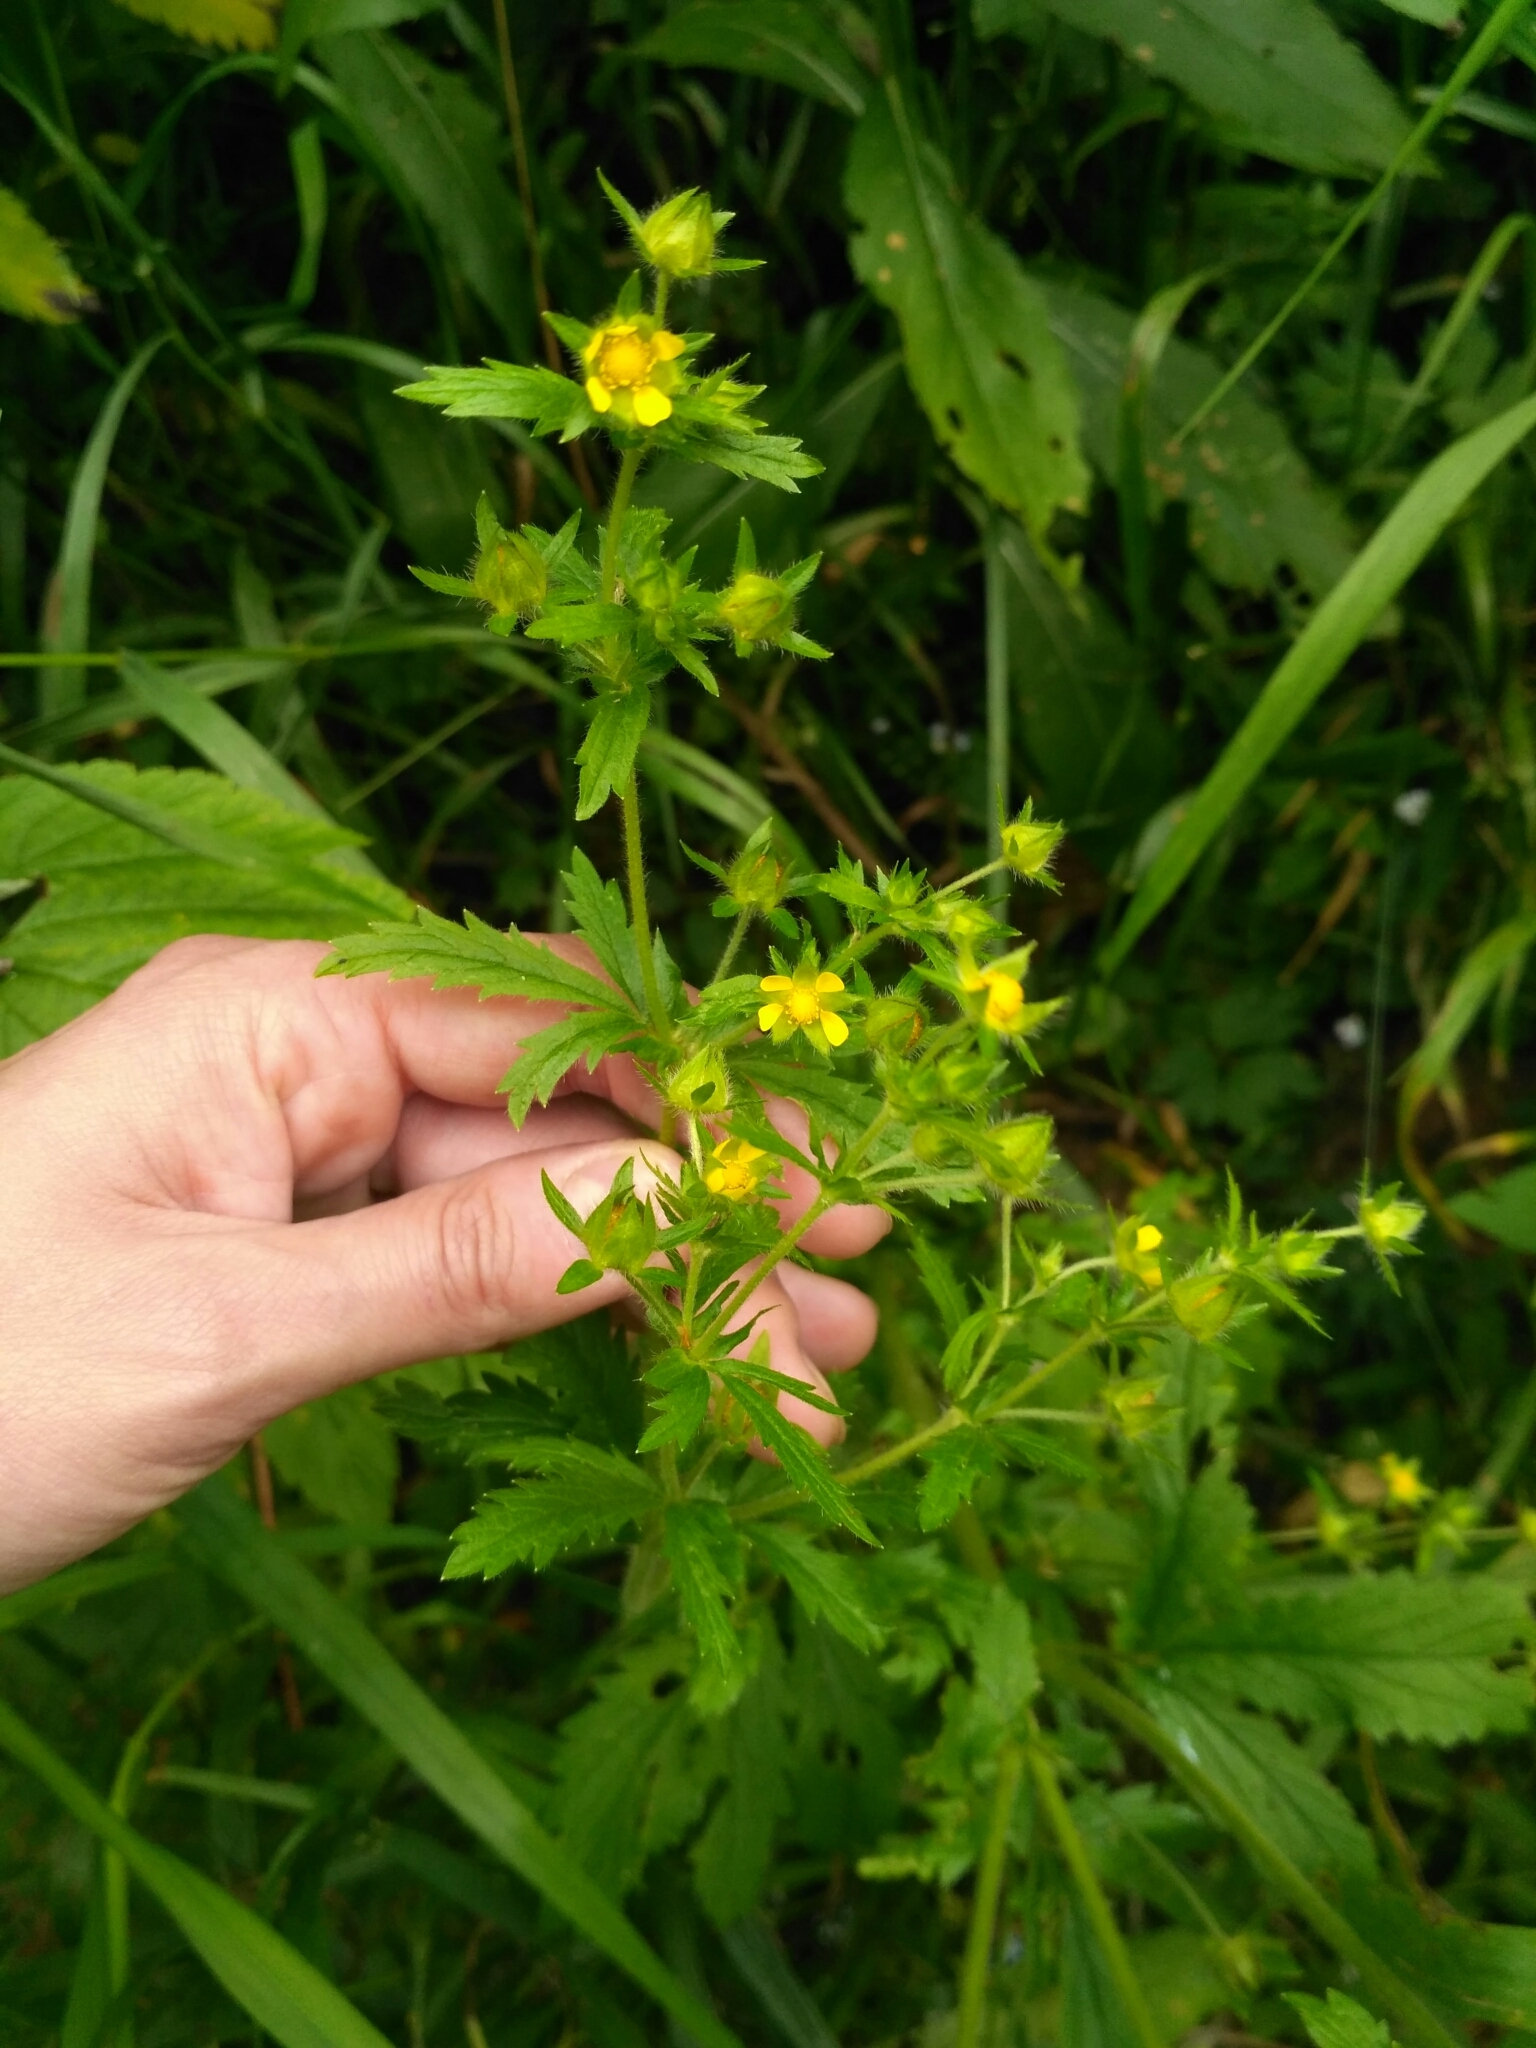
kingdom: Plantae
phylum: Tracheophyta
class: Magnoliopsida
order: Rosales
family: Rosaceae
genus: Potentilla
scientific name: Potentilla norvegica
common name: Ternate-leaved cinquefoil
